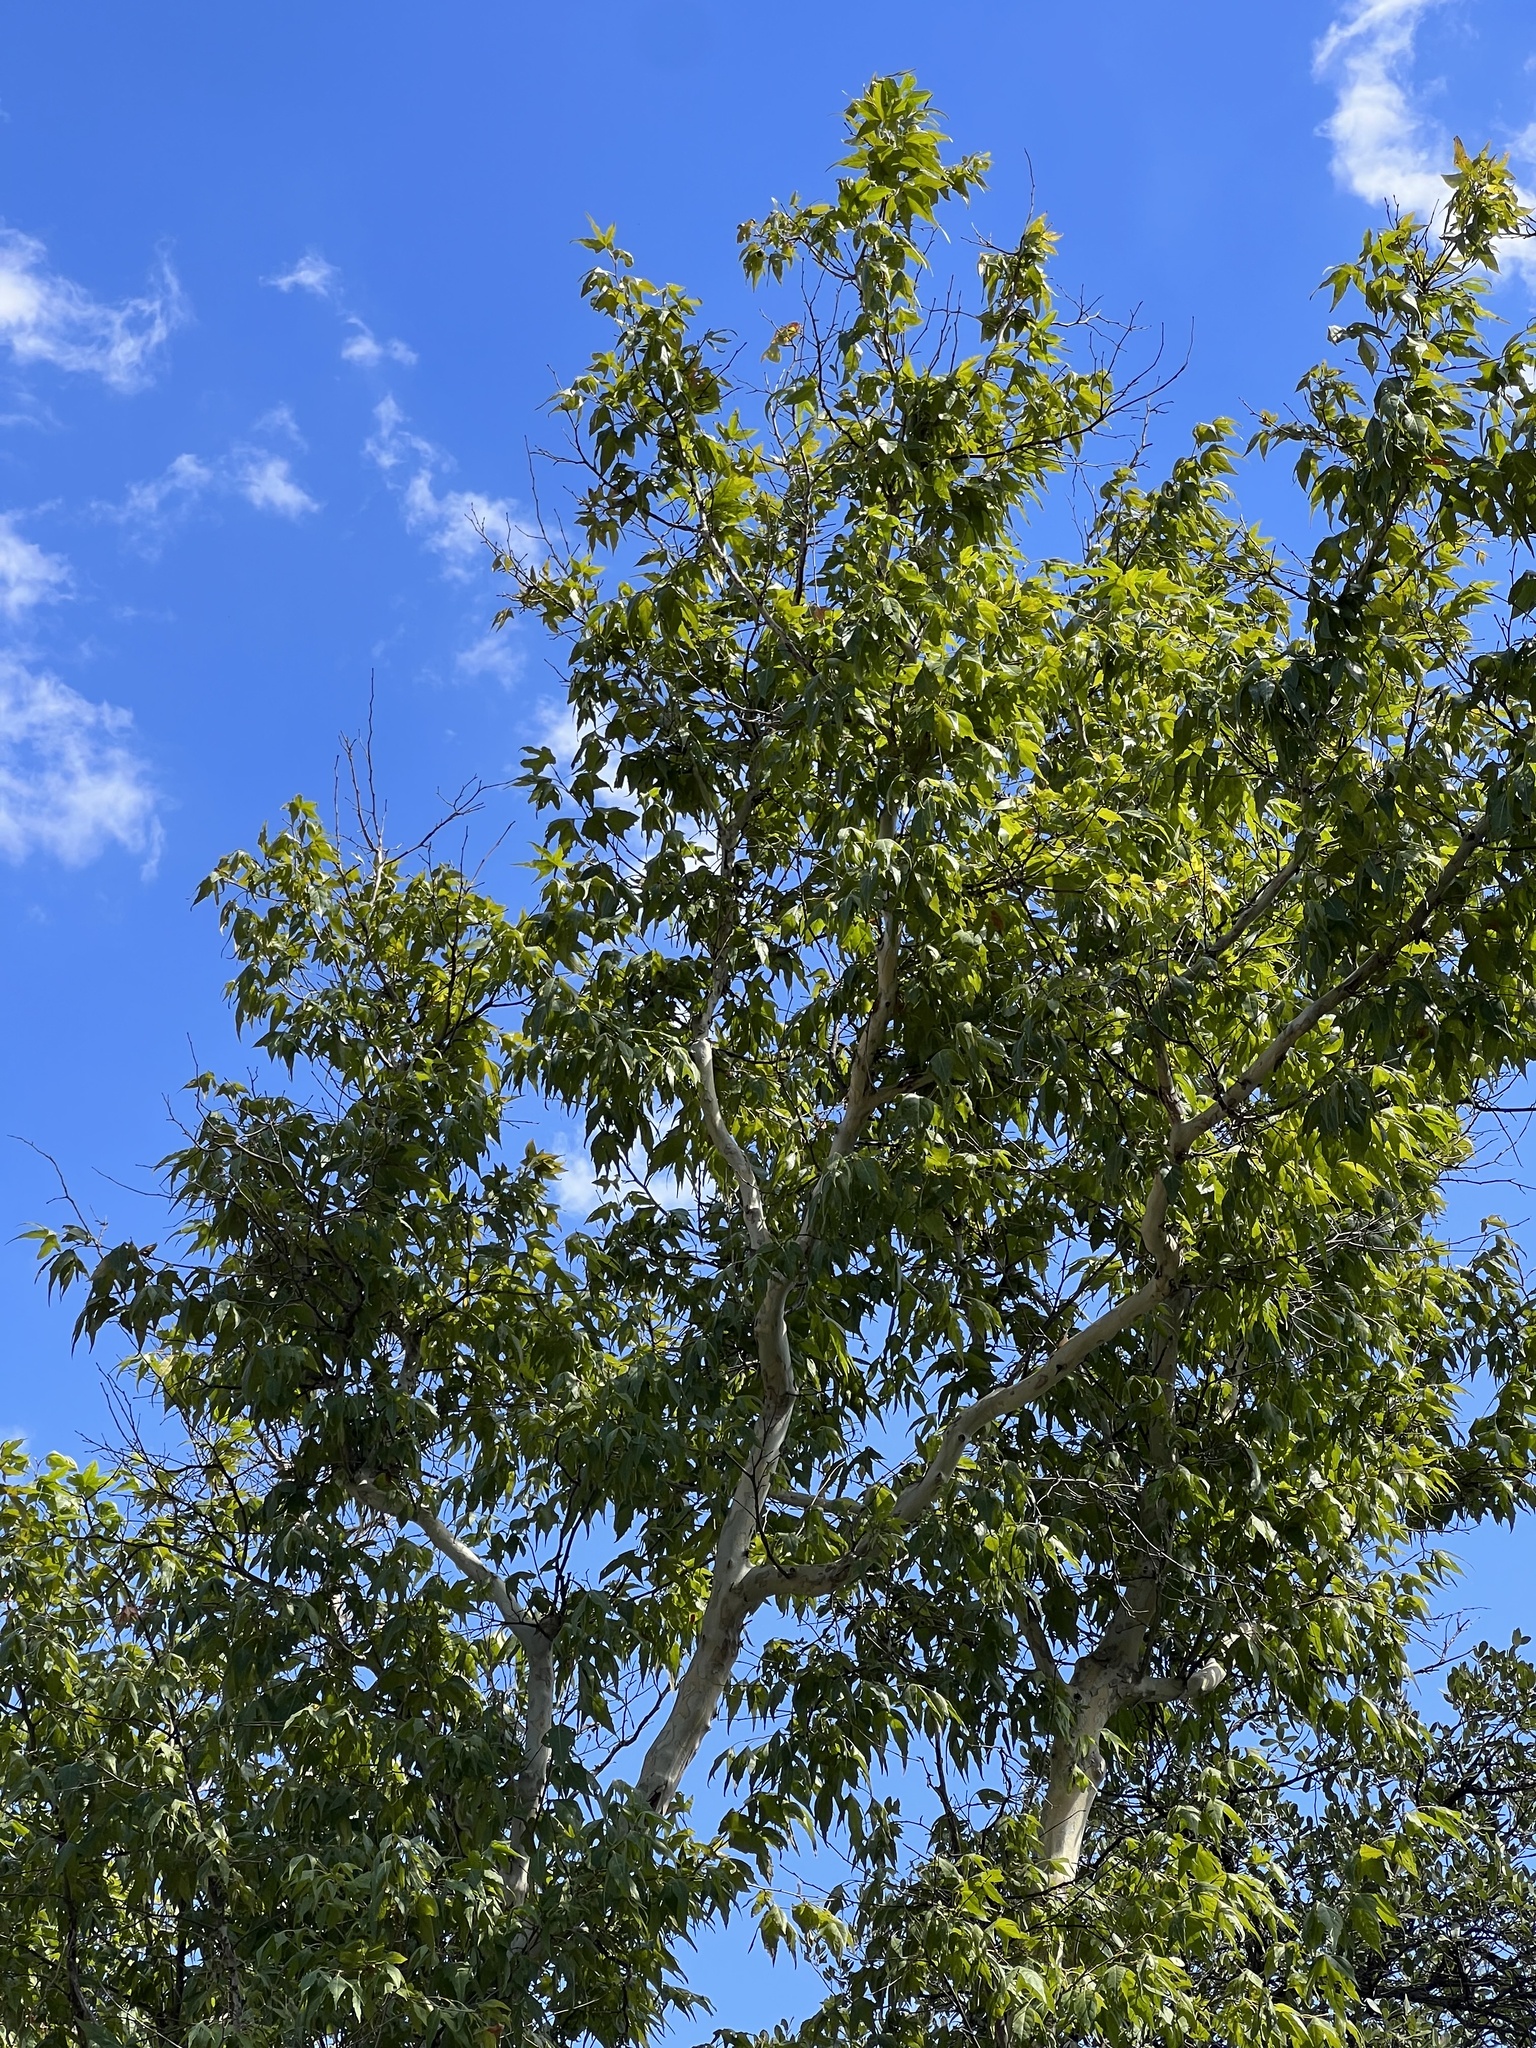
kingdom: Plantae
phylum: Tracheophyta
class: Magnoliopsida
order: Proteales
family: Platanaceae
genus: Platanus
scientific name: Platanus wrightii
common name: Arizona sycamore
